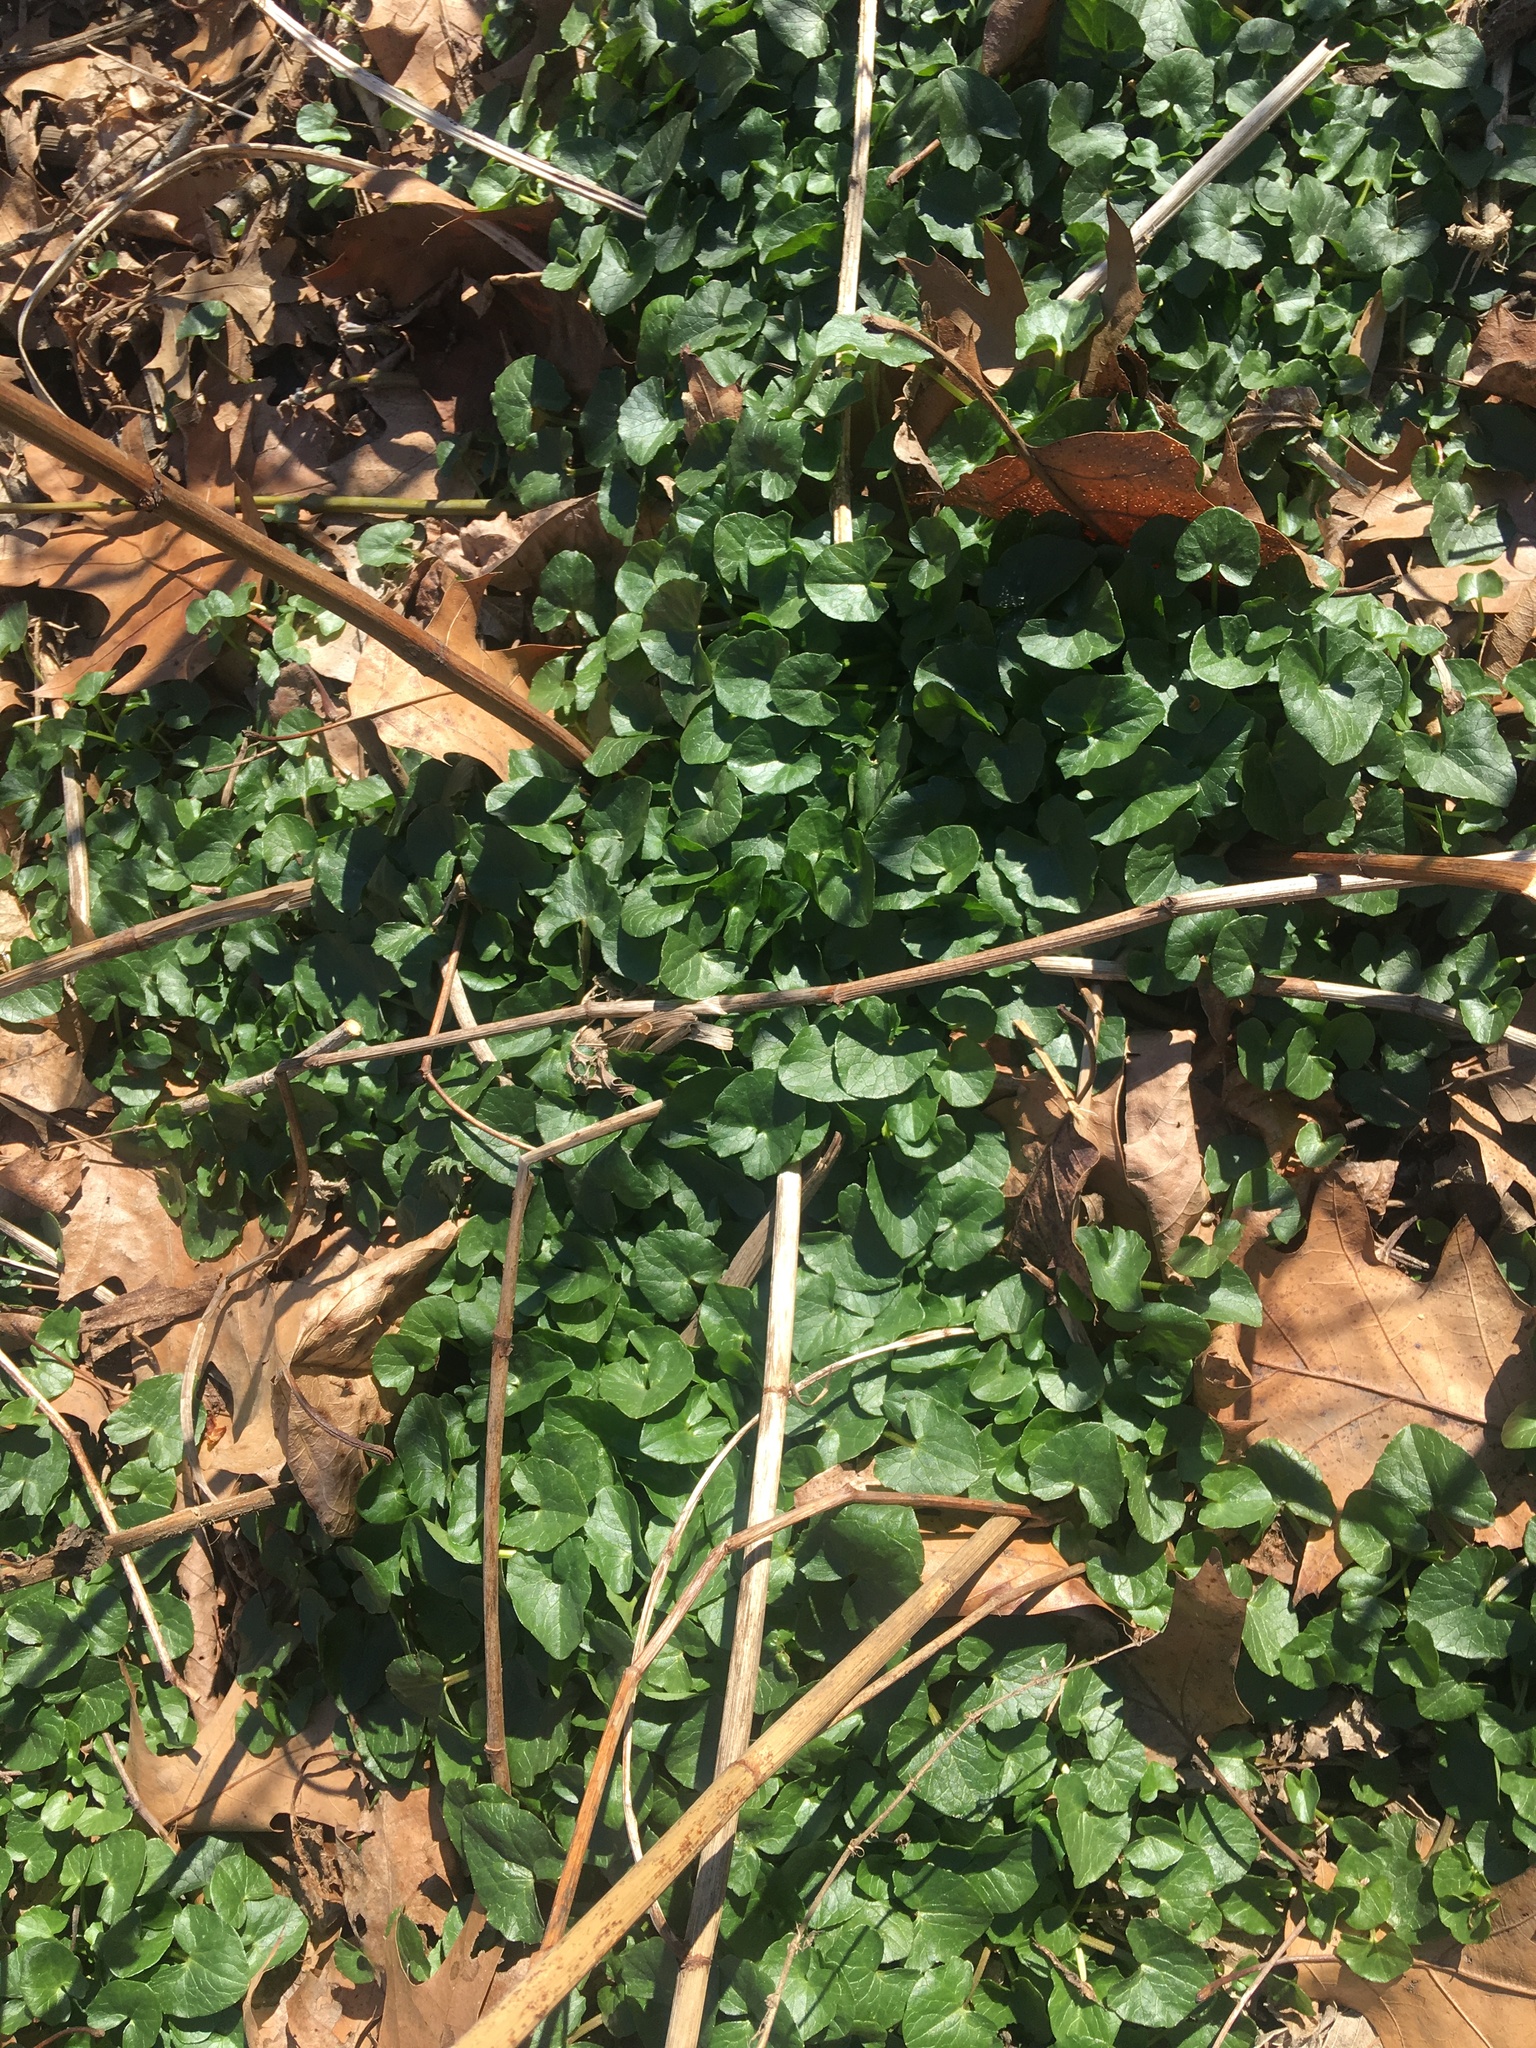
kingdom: Plantae
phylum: Tracheophyta
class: Magnoliopsida
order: Ranunculales
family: Ranunculaceae
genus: Ficaria
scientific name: Ficaria verna
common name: Lesser celandine
